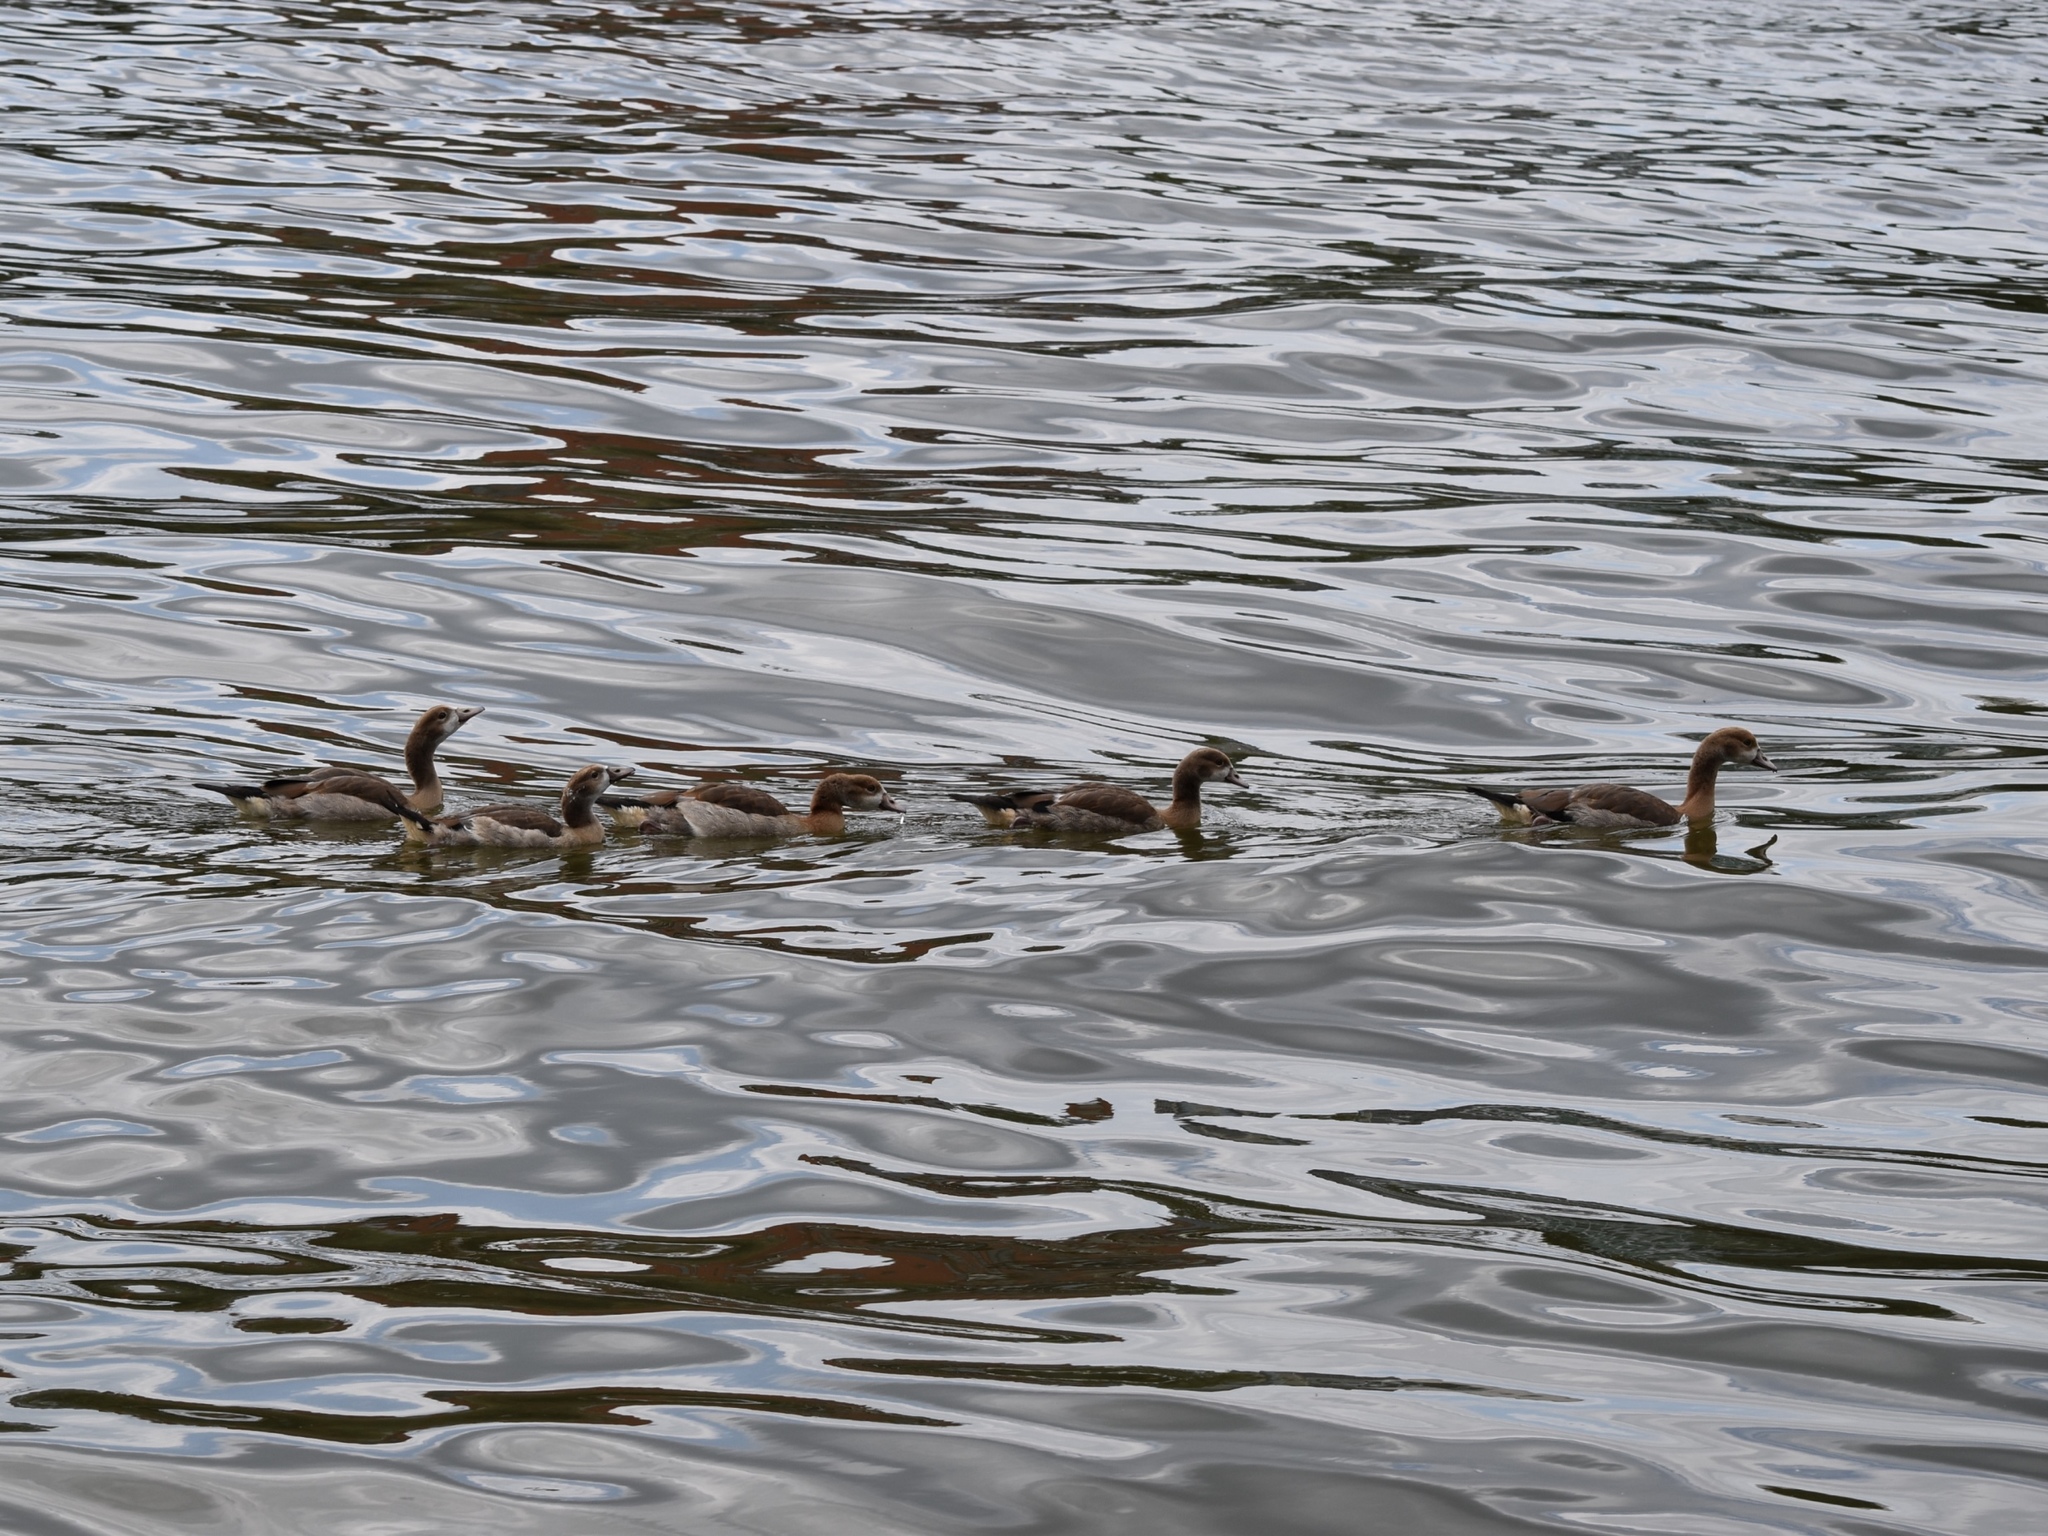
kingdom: Animalia
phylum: Chordata
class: Aves
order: Anseriformes
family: Anatidae
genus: Alopochen
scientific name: Alopochen aegyptiaca
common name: Egyptian goose
